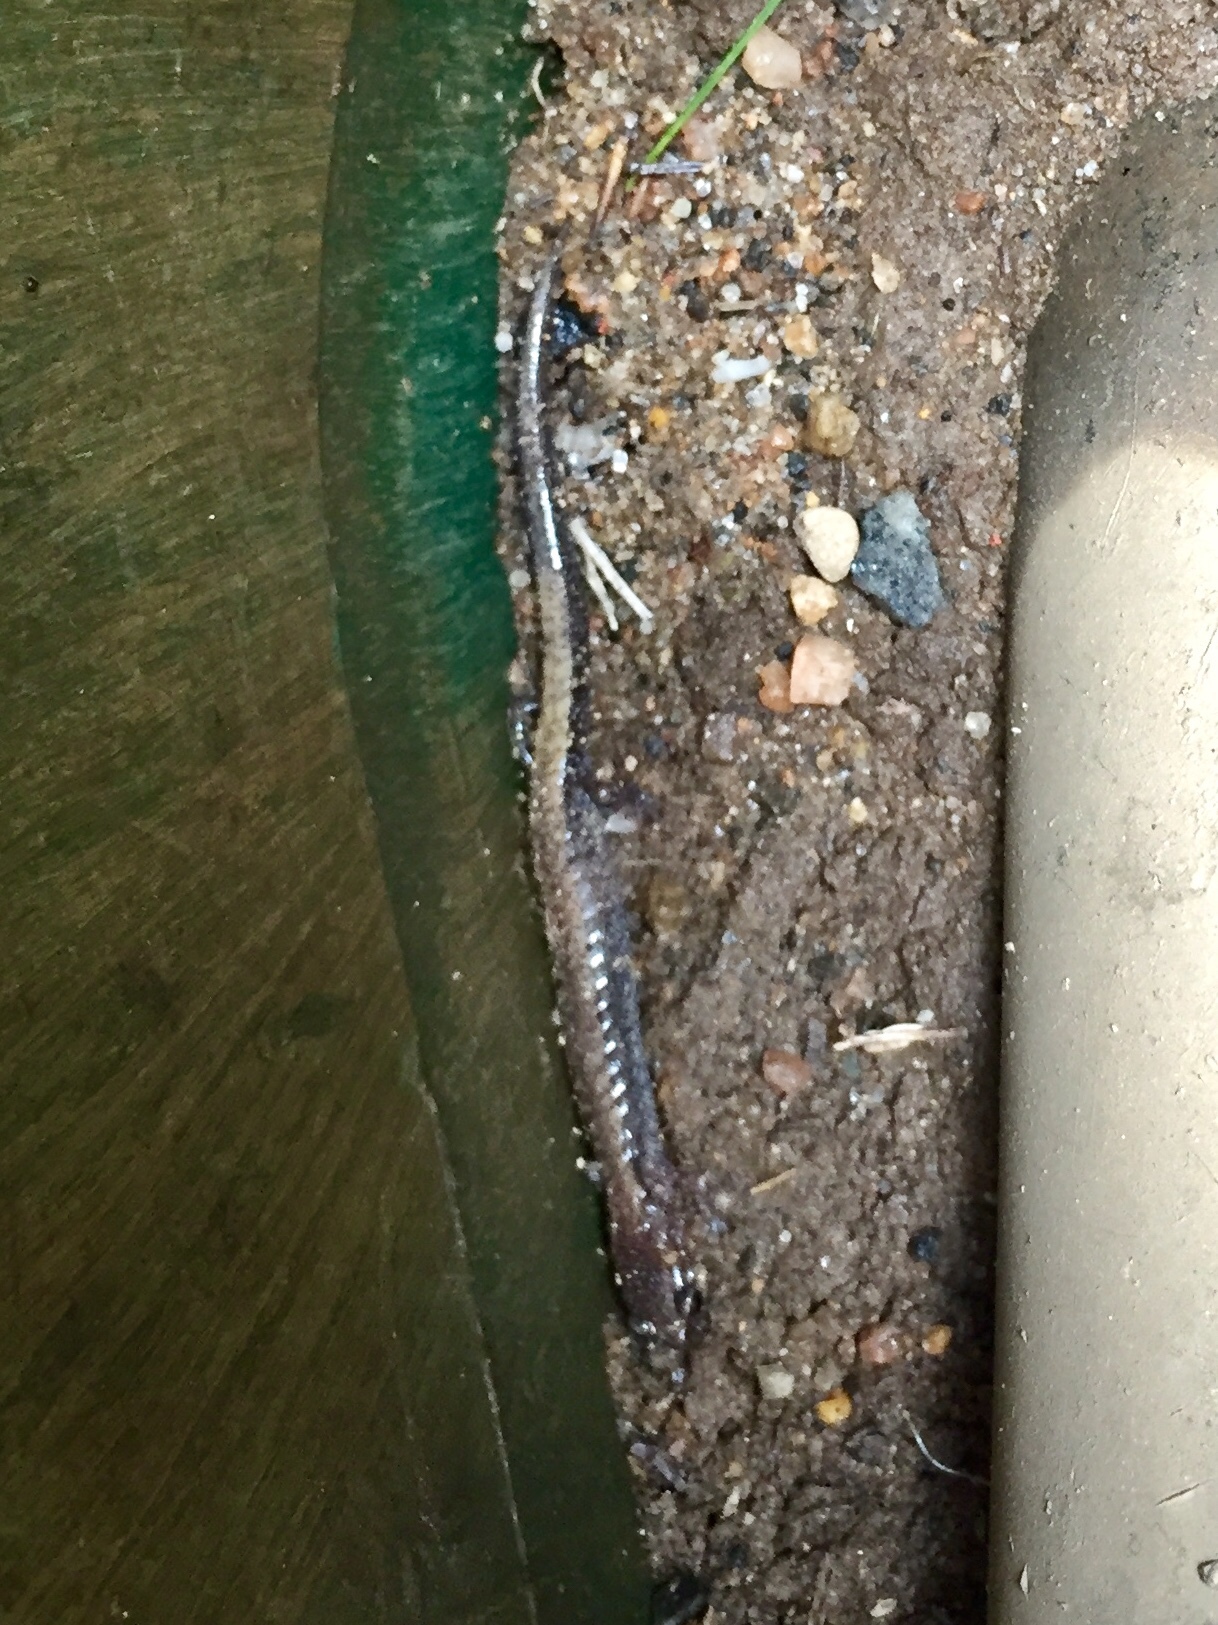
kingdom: Animalia
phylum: Chordata
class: Amphibia
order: Caudata
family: Plethodontidae
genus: Plethodon
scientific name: Plethodon cinereus
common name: Redback salamander
